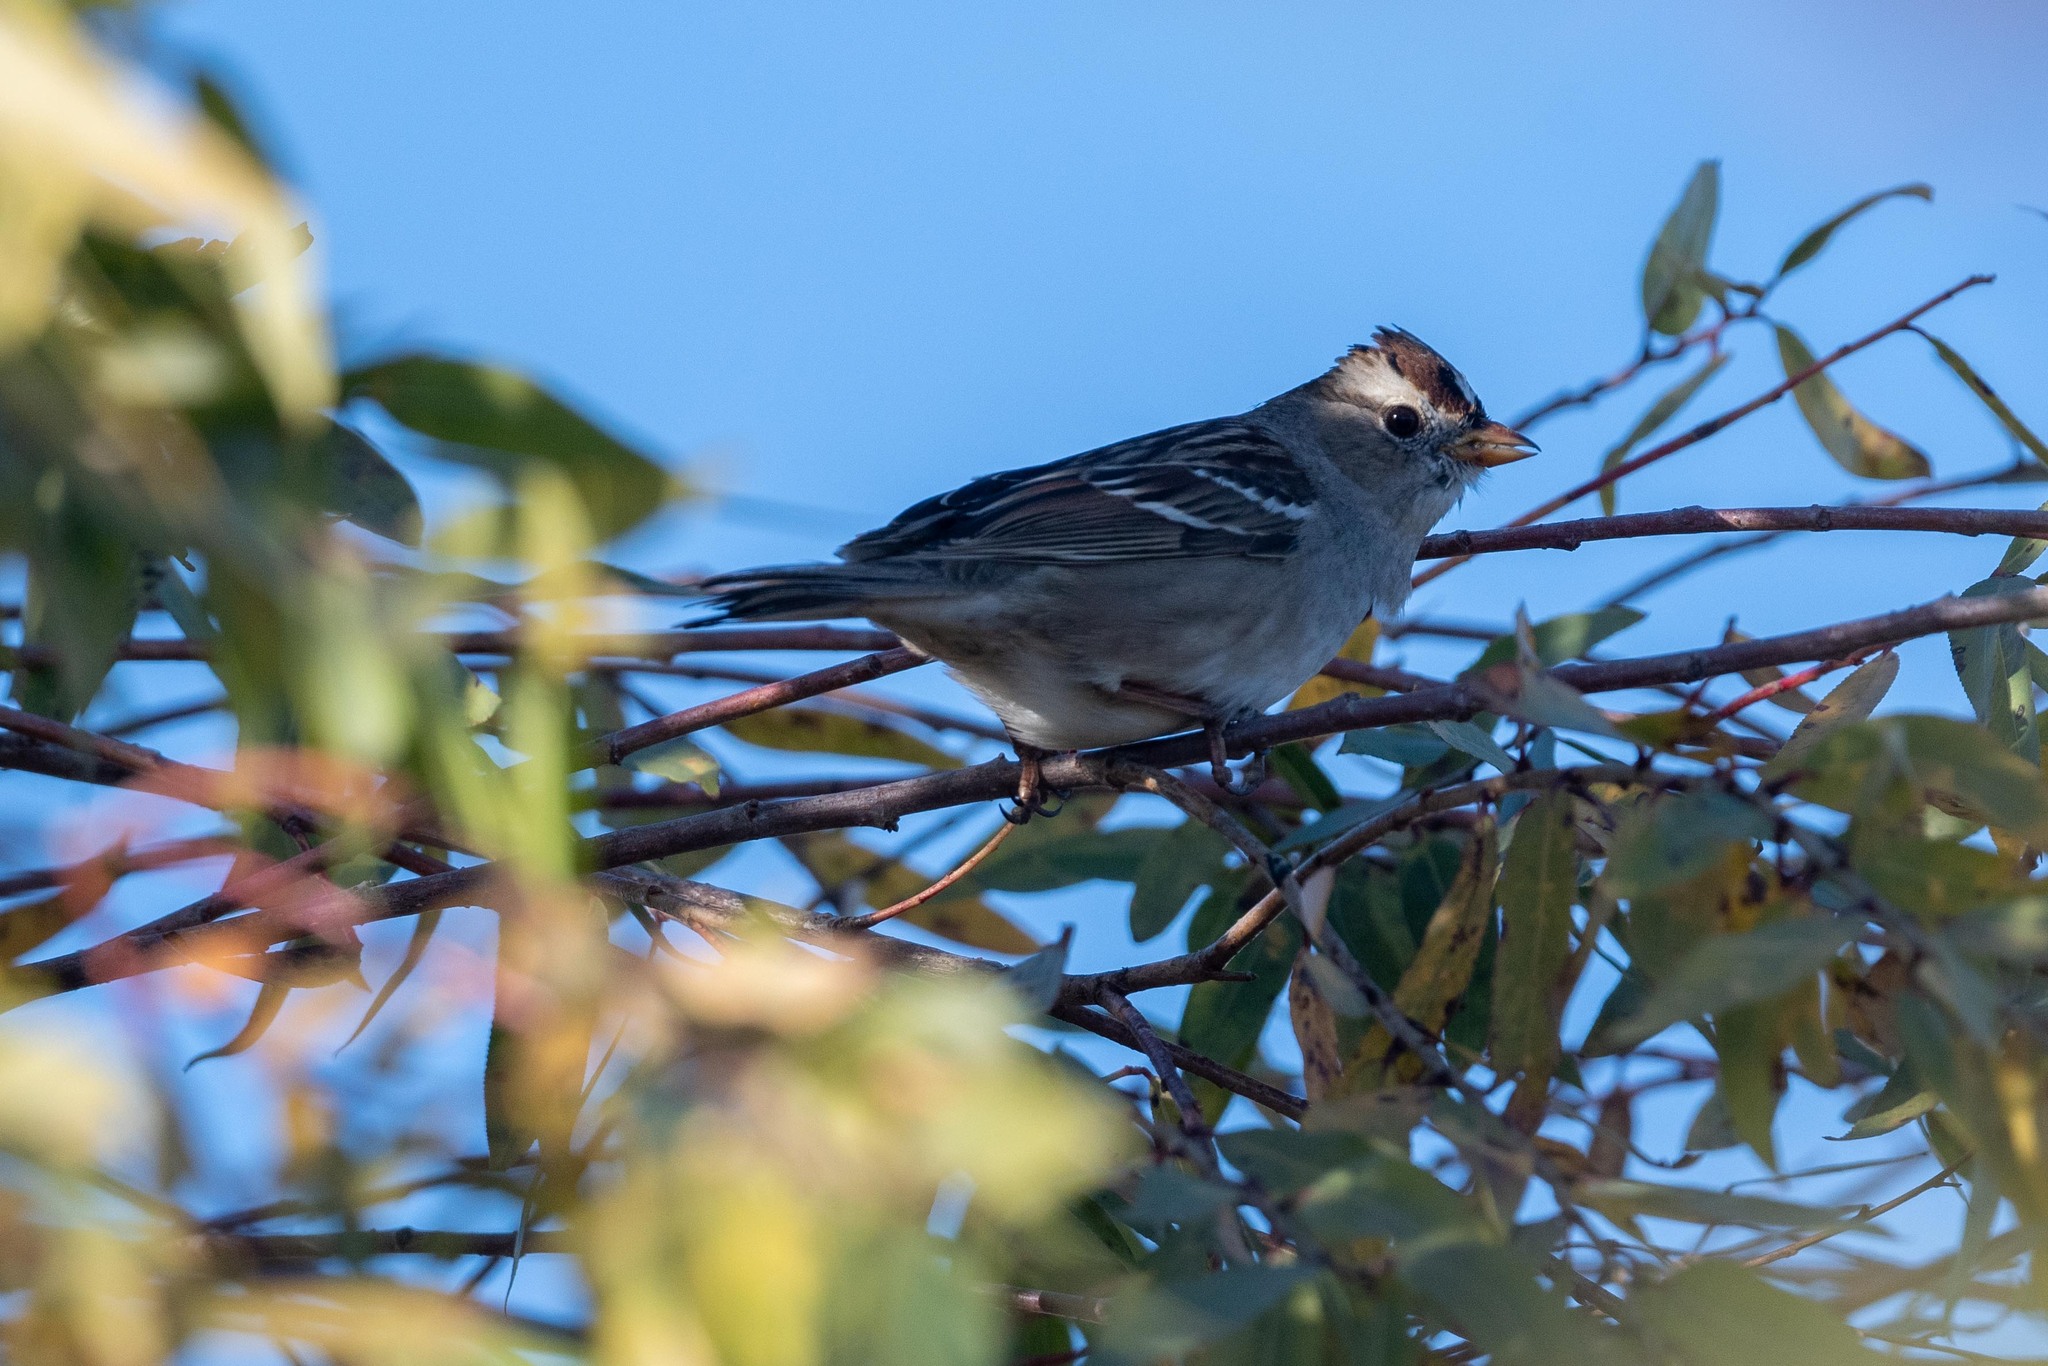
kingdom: Animalia
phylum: Chordata
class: Aves
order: Passeriformes
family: Passerellidae
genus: Zonotrichia
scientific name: Zonotrichia leucophrys
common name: White-crowned sparrow
